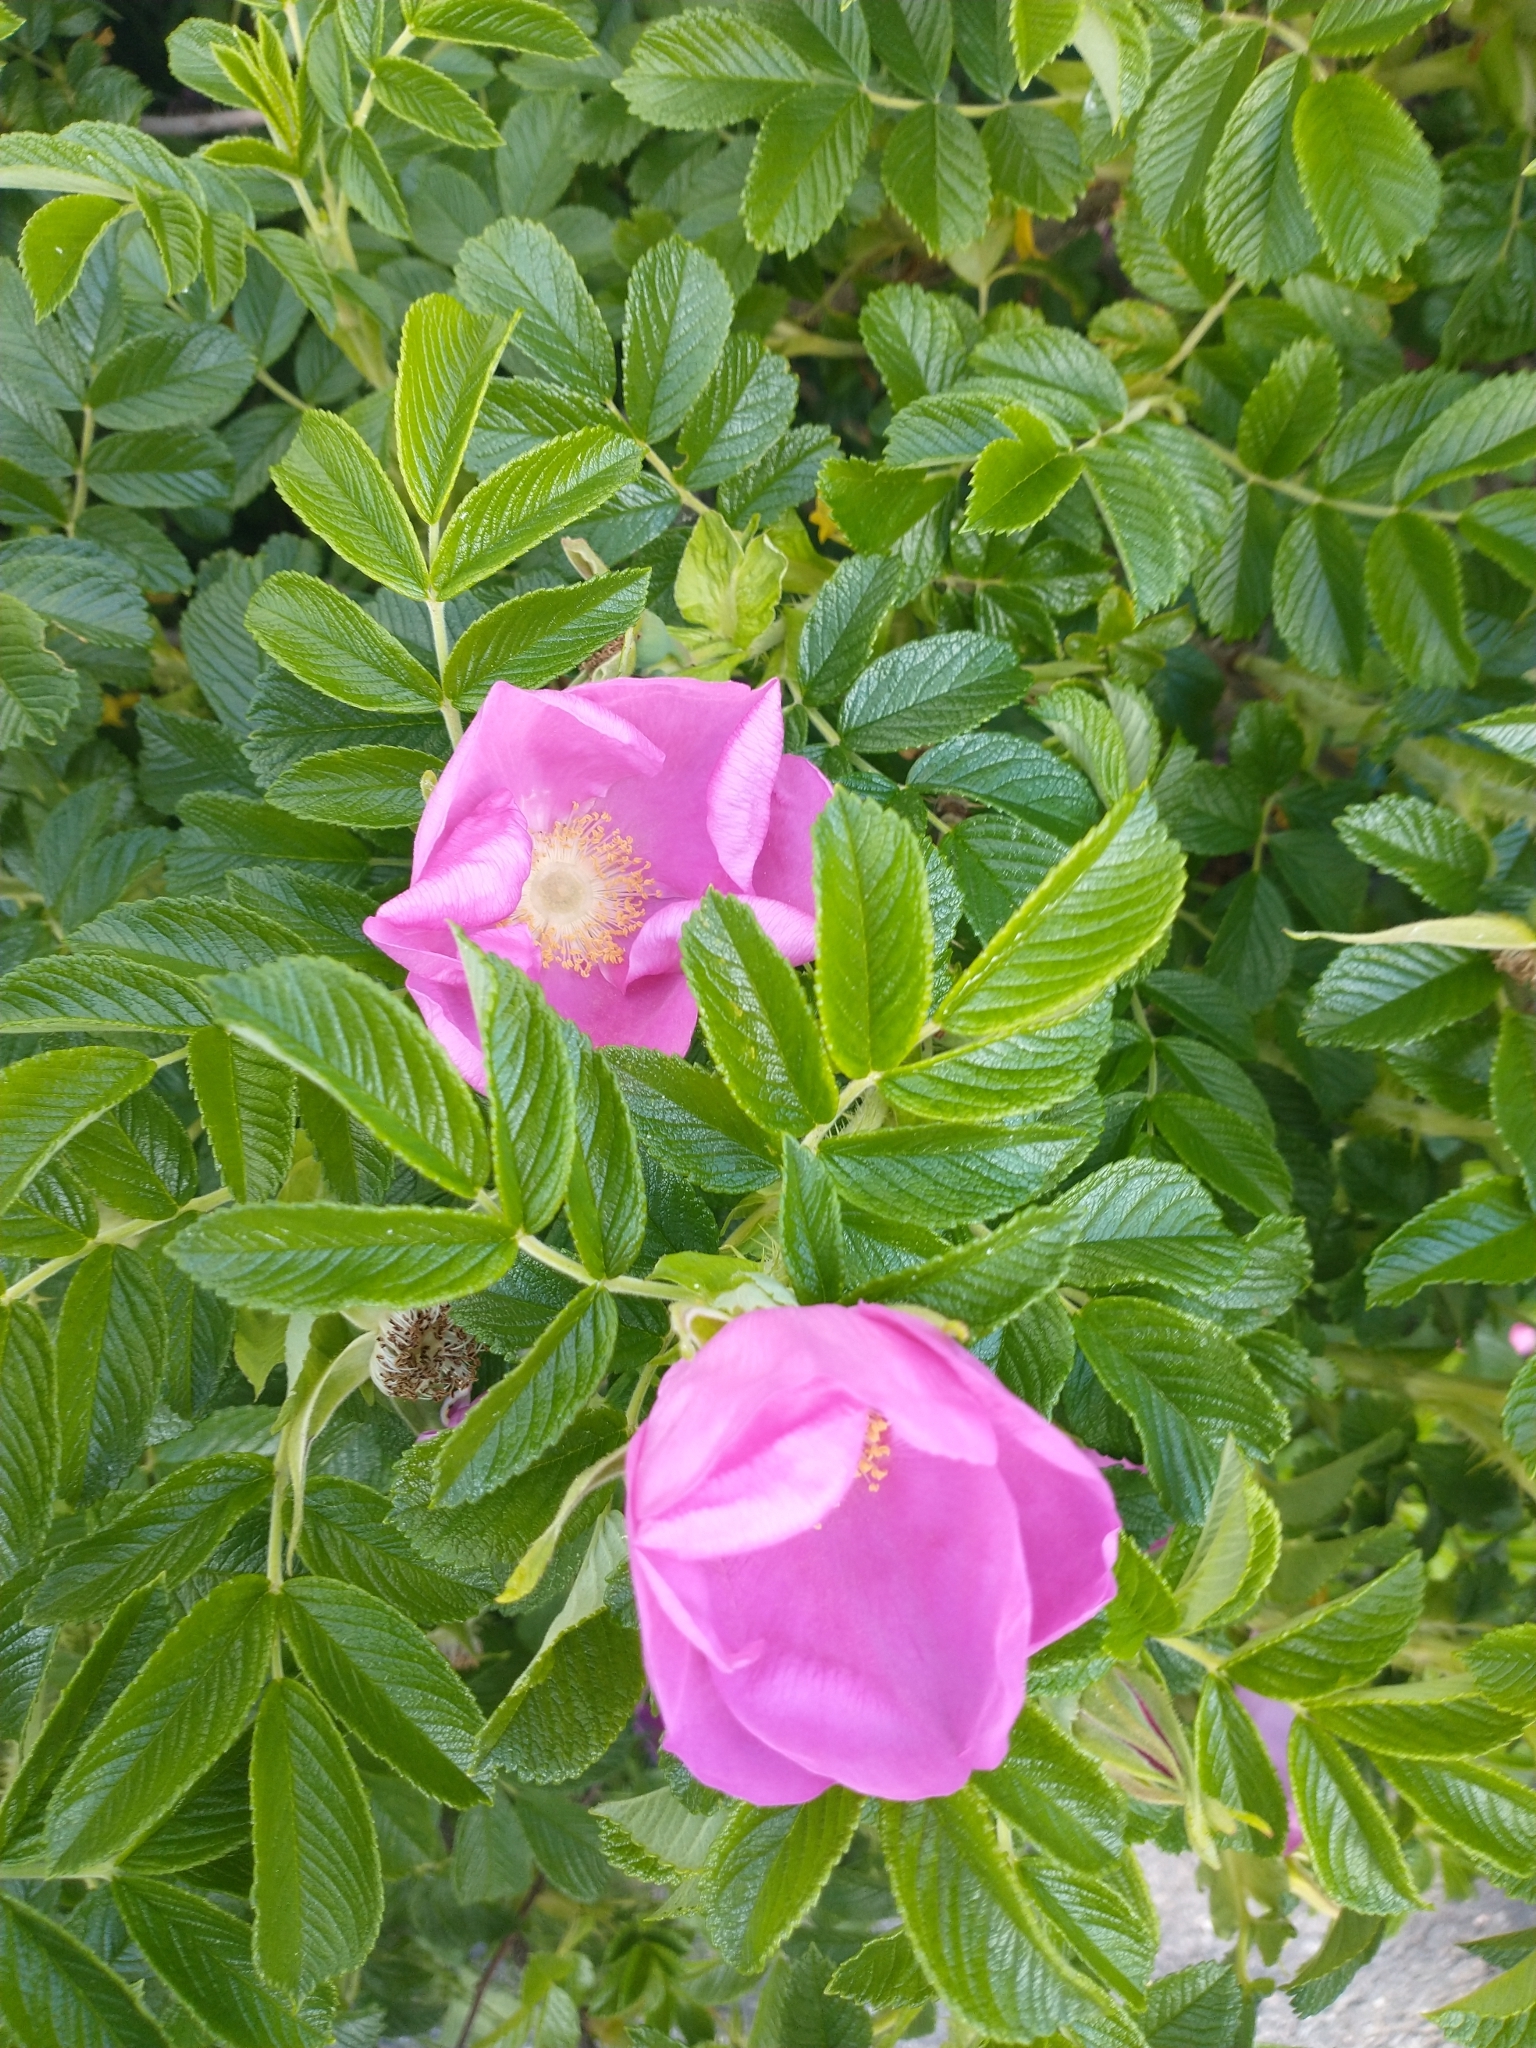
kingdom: Plantae
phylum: Tracheophyta
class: Magnoliopsida
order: Rosales
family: Rosaceae
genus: Rosa
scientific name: Rosa rugosa
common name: Japanese rose
